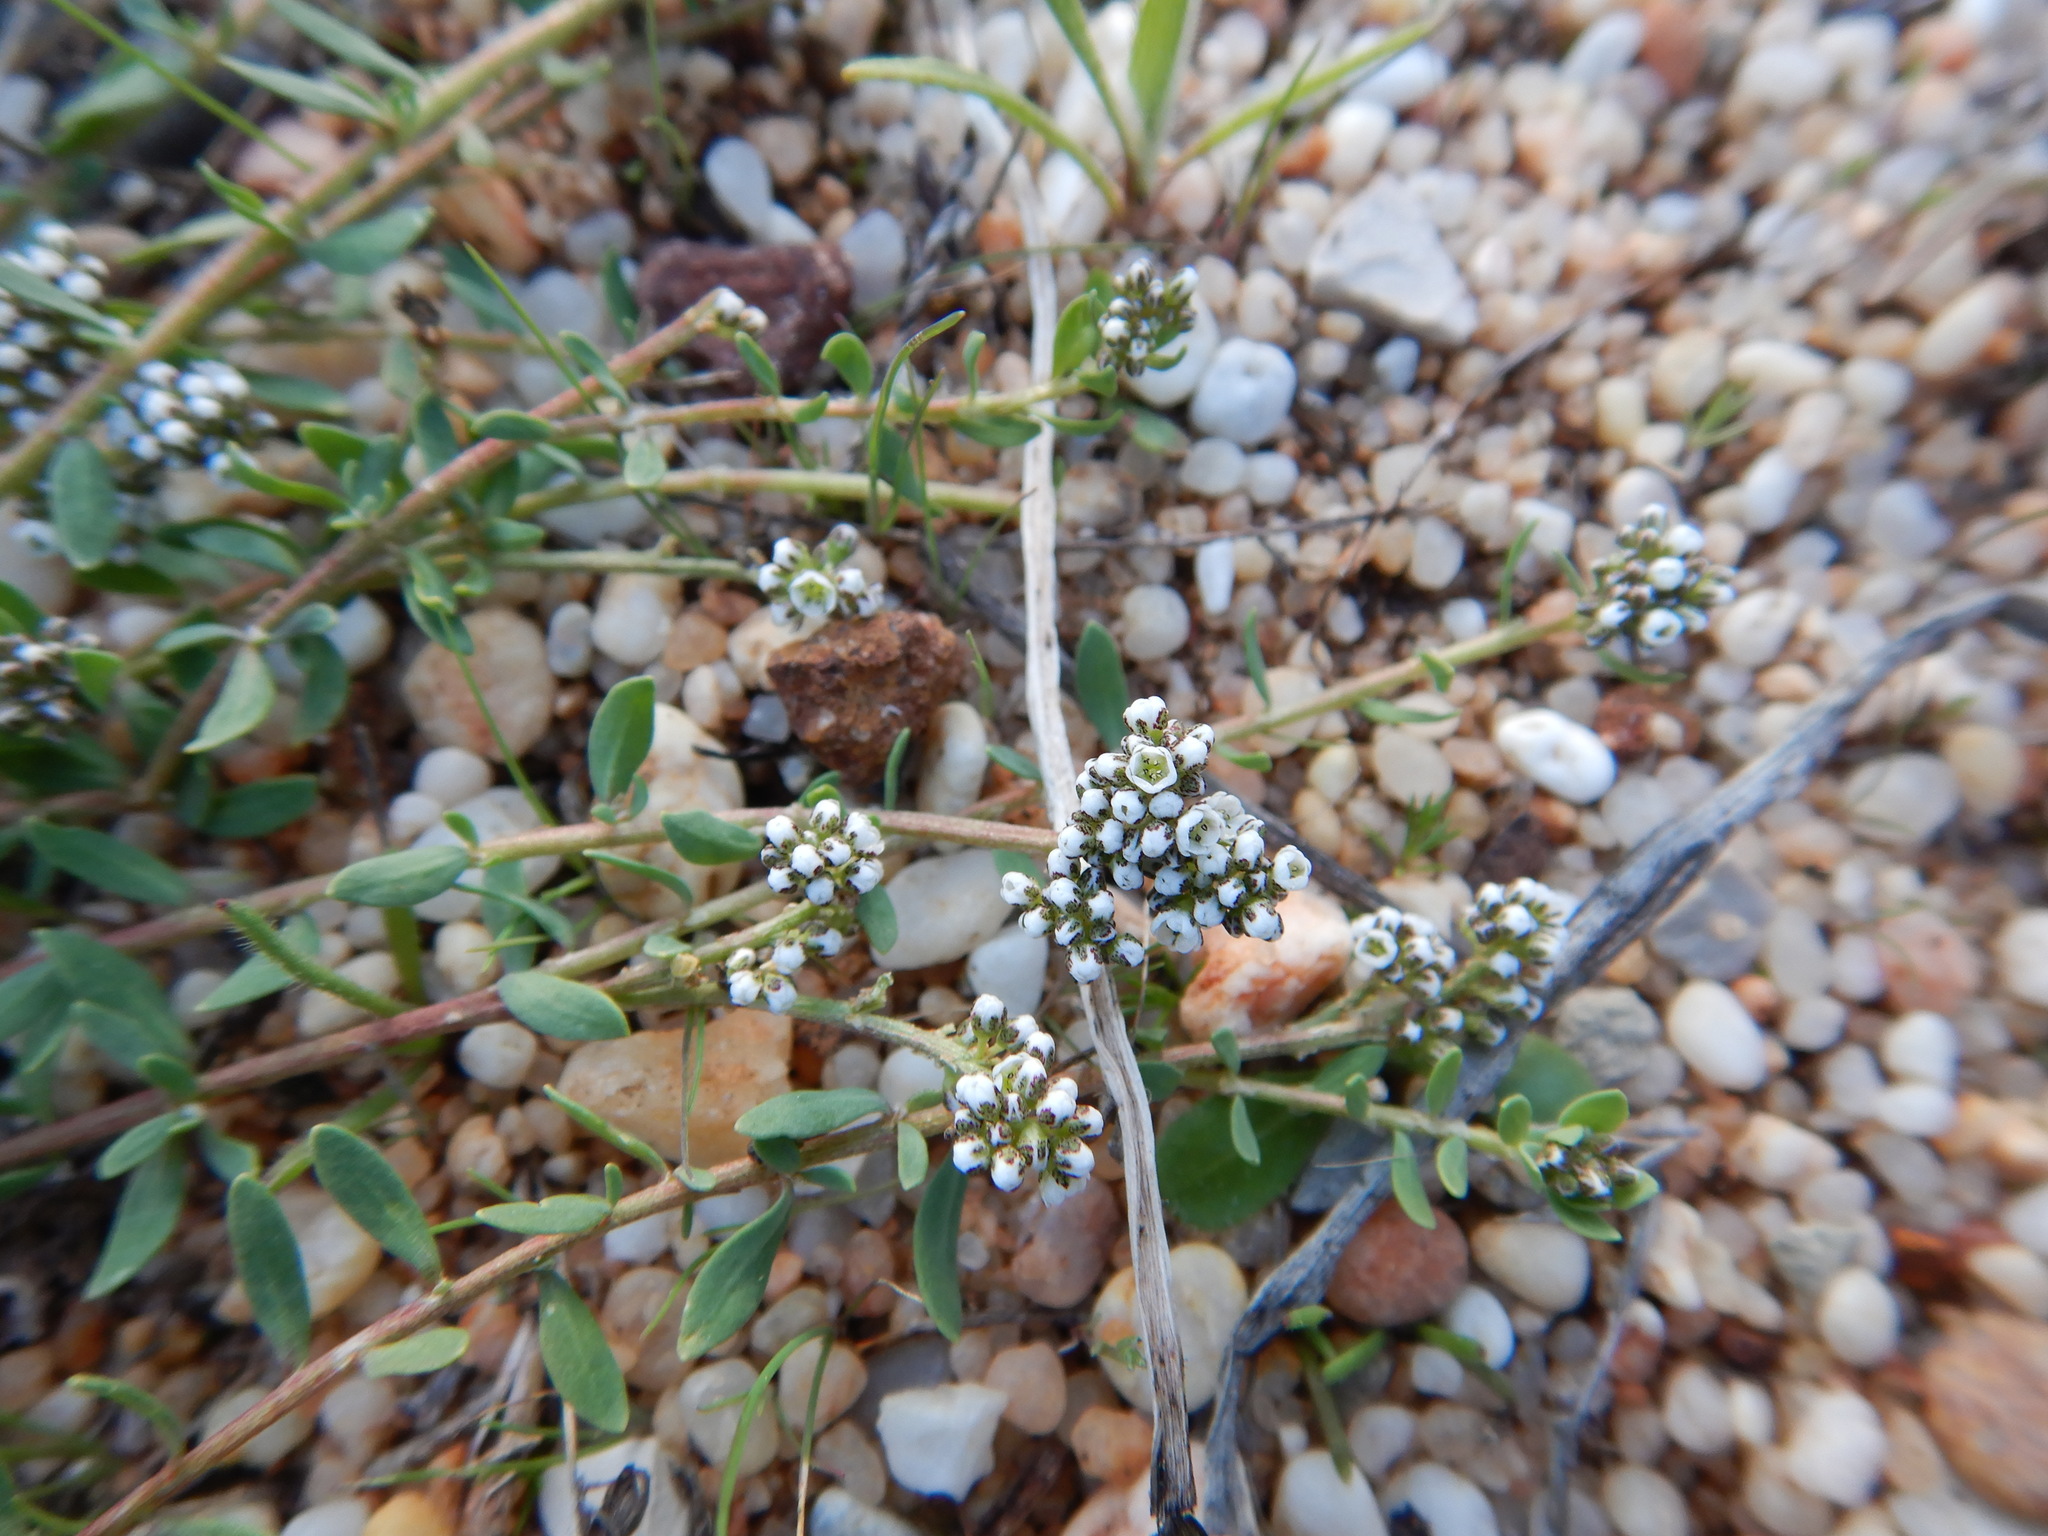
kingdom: Plantae
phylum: Tracheophyta
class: Magnoliopsida
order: Caryophyllales
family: Caryophyllaceae
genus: Corrigiola
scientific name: Corrigiola litoralis
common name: Strapwort
